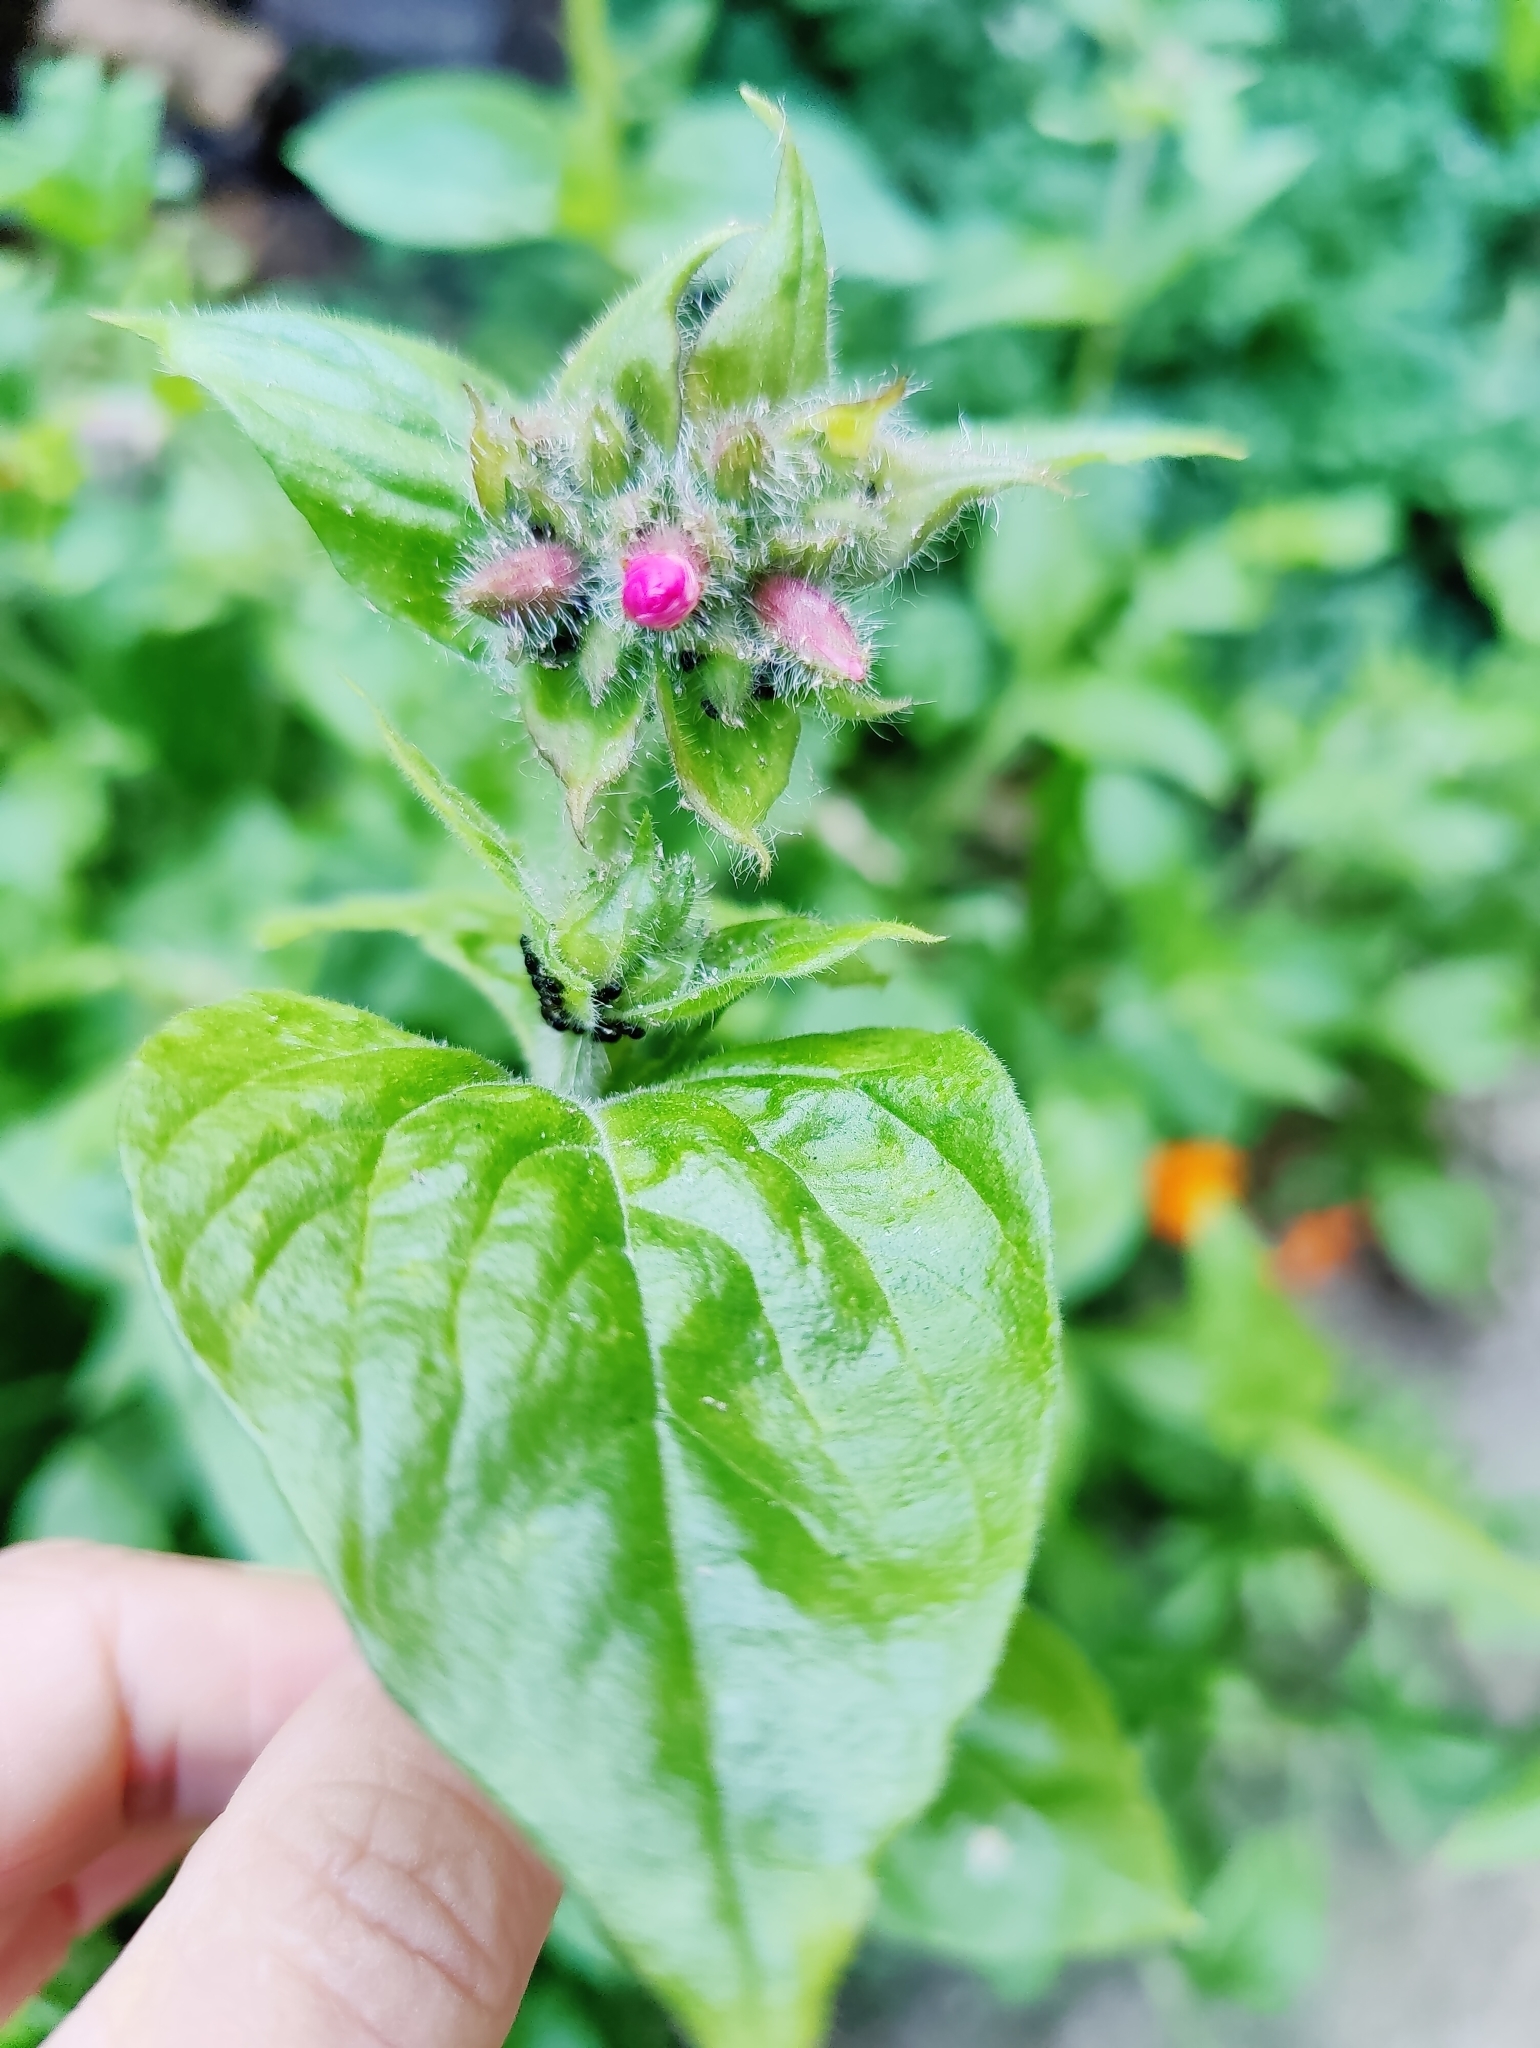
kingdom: Plantae
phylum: Tracheophyta
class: Magnoliopsida
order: Caryophyllales
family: Caryophyllaceae
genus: Silene
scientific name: Silene dioica
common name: Red campion
